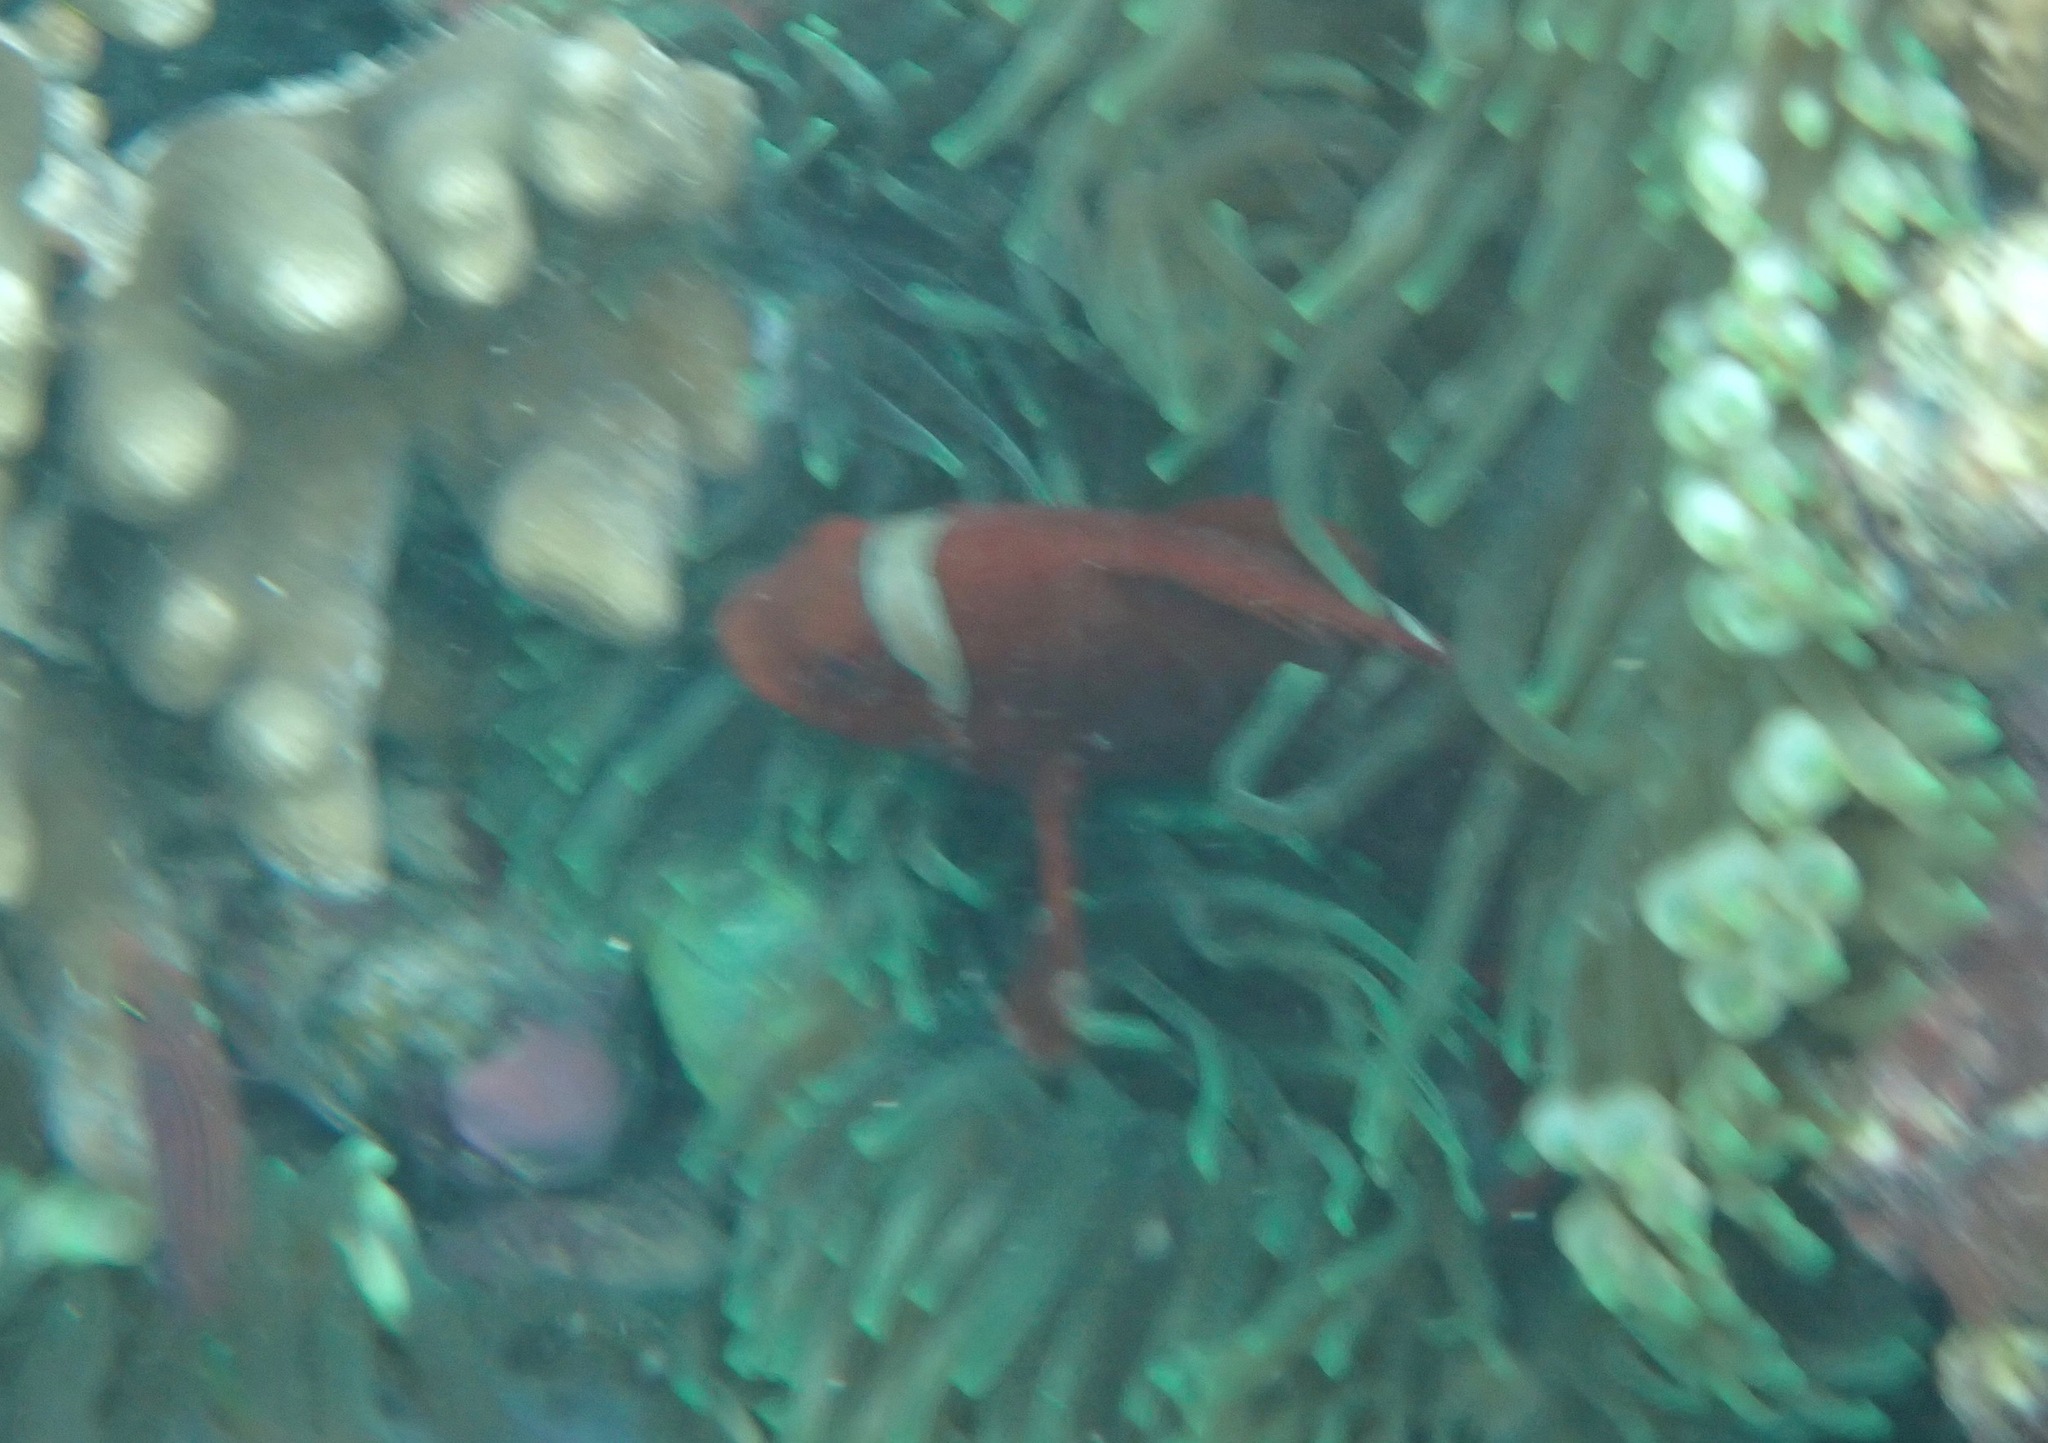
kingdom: Animalia
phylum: Chordata
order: Perciformes
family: Pomacentridae
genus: Premnas
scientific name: Premnas biaculeatus
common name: Spinecheek anemonefish
